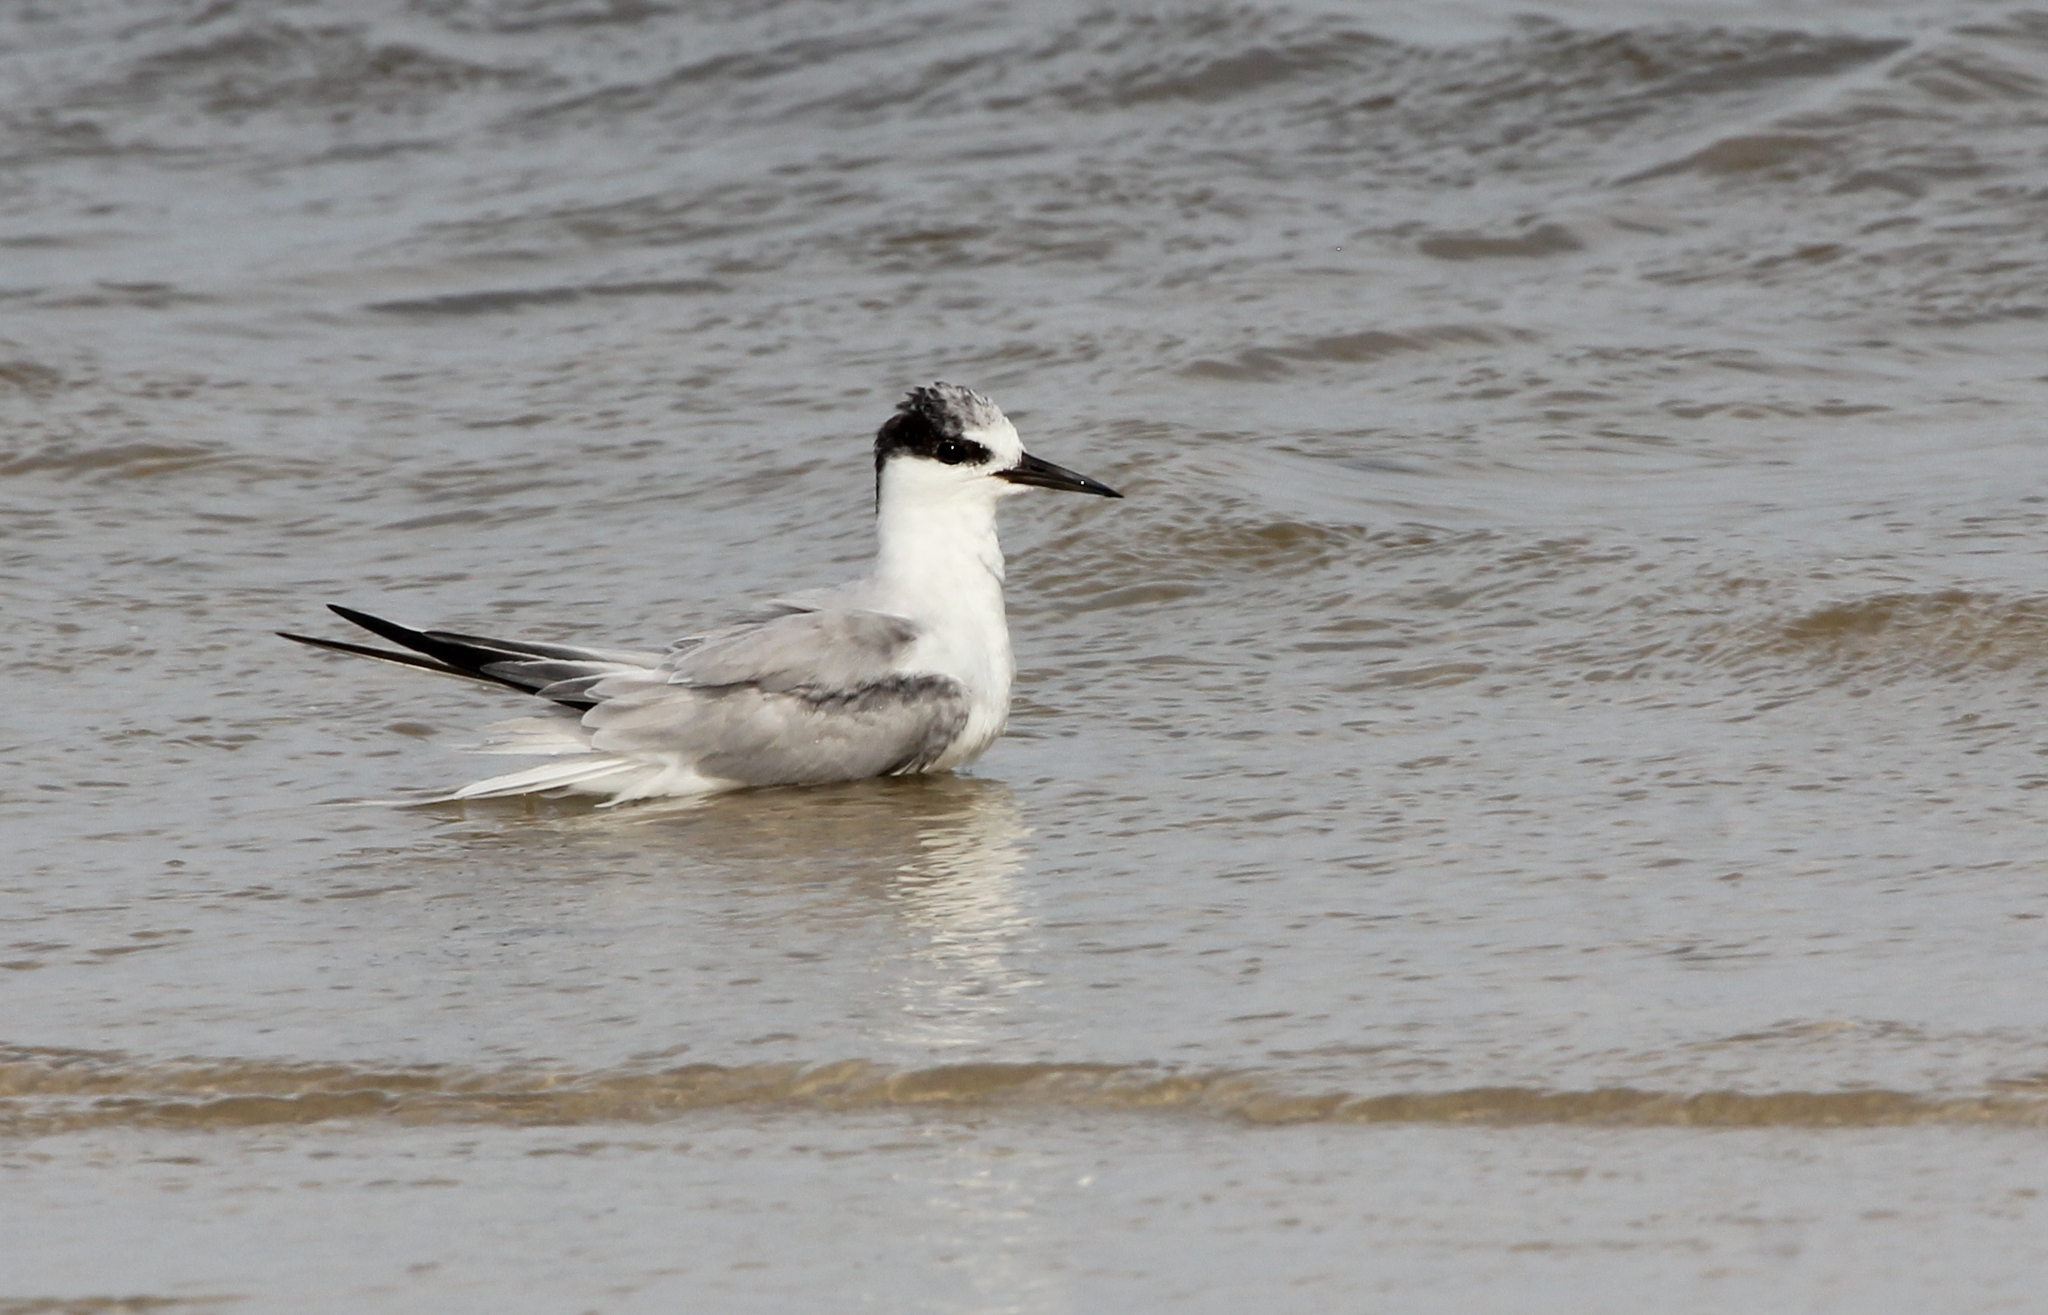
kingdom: Animalia
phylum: Chordata
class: Aves
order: Charadriiformes
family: Laridae
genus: Sternula
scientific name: Sternula antillarum
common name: Least tern
